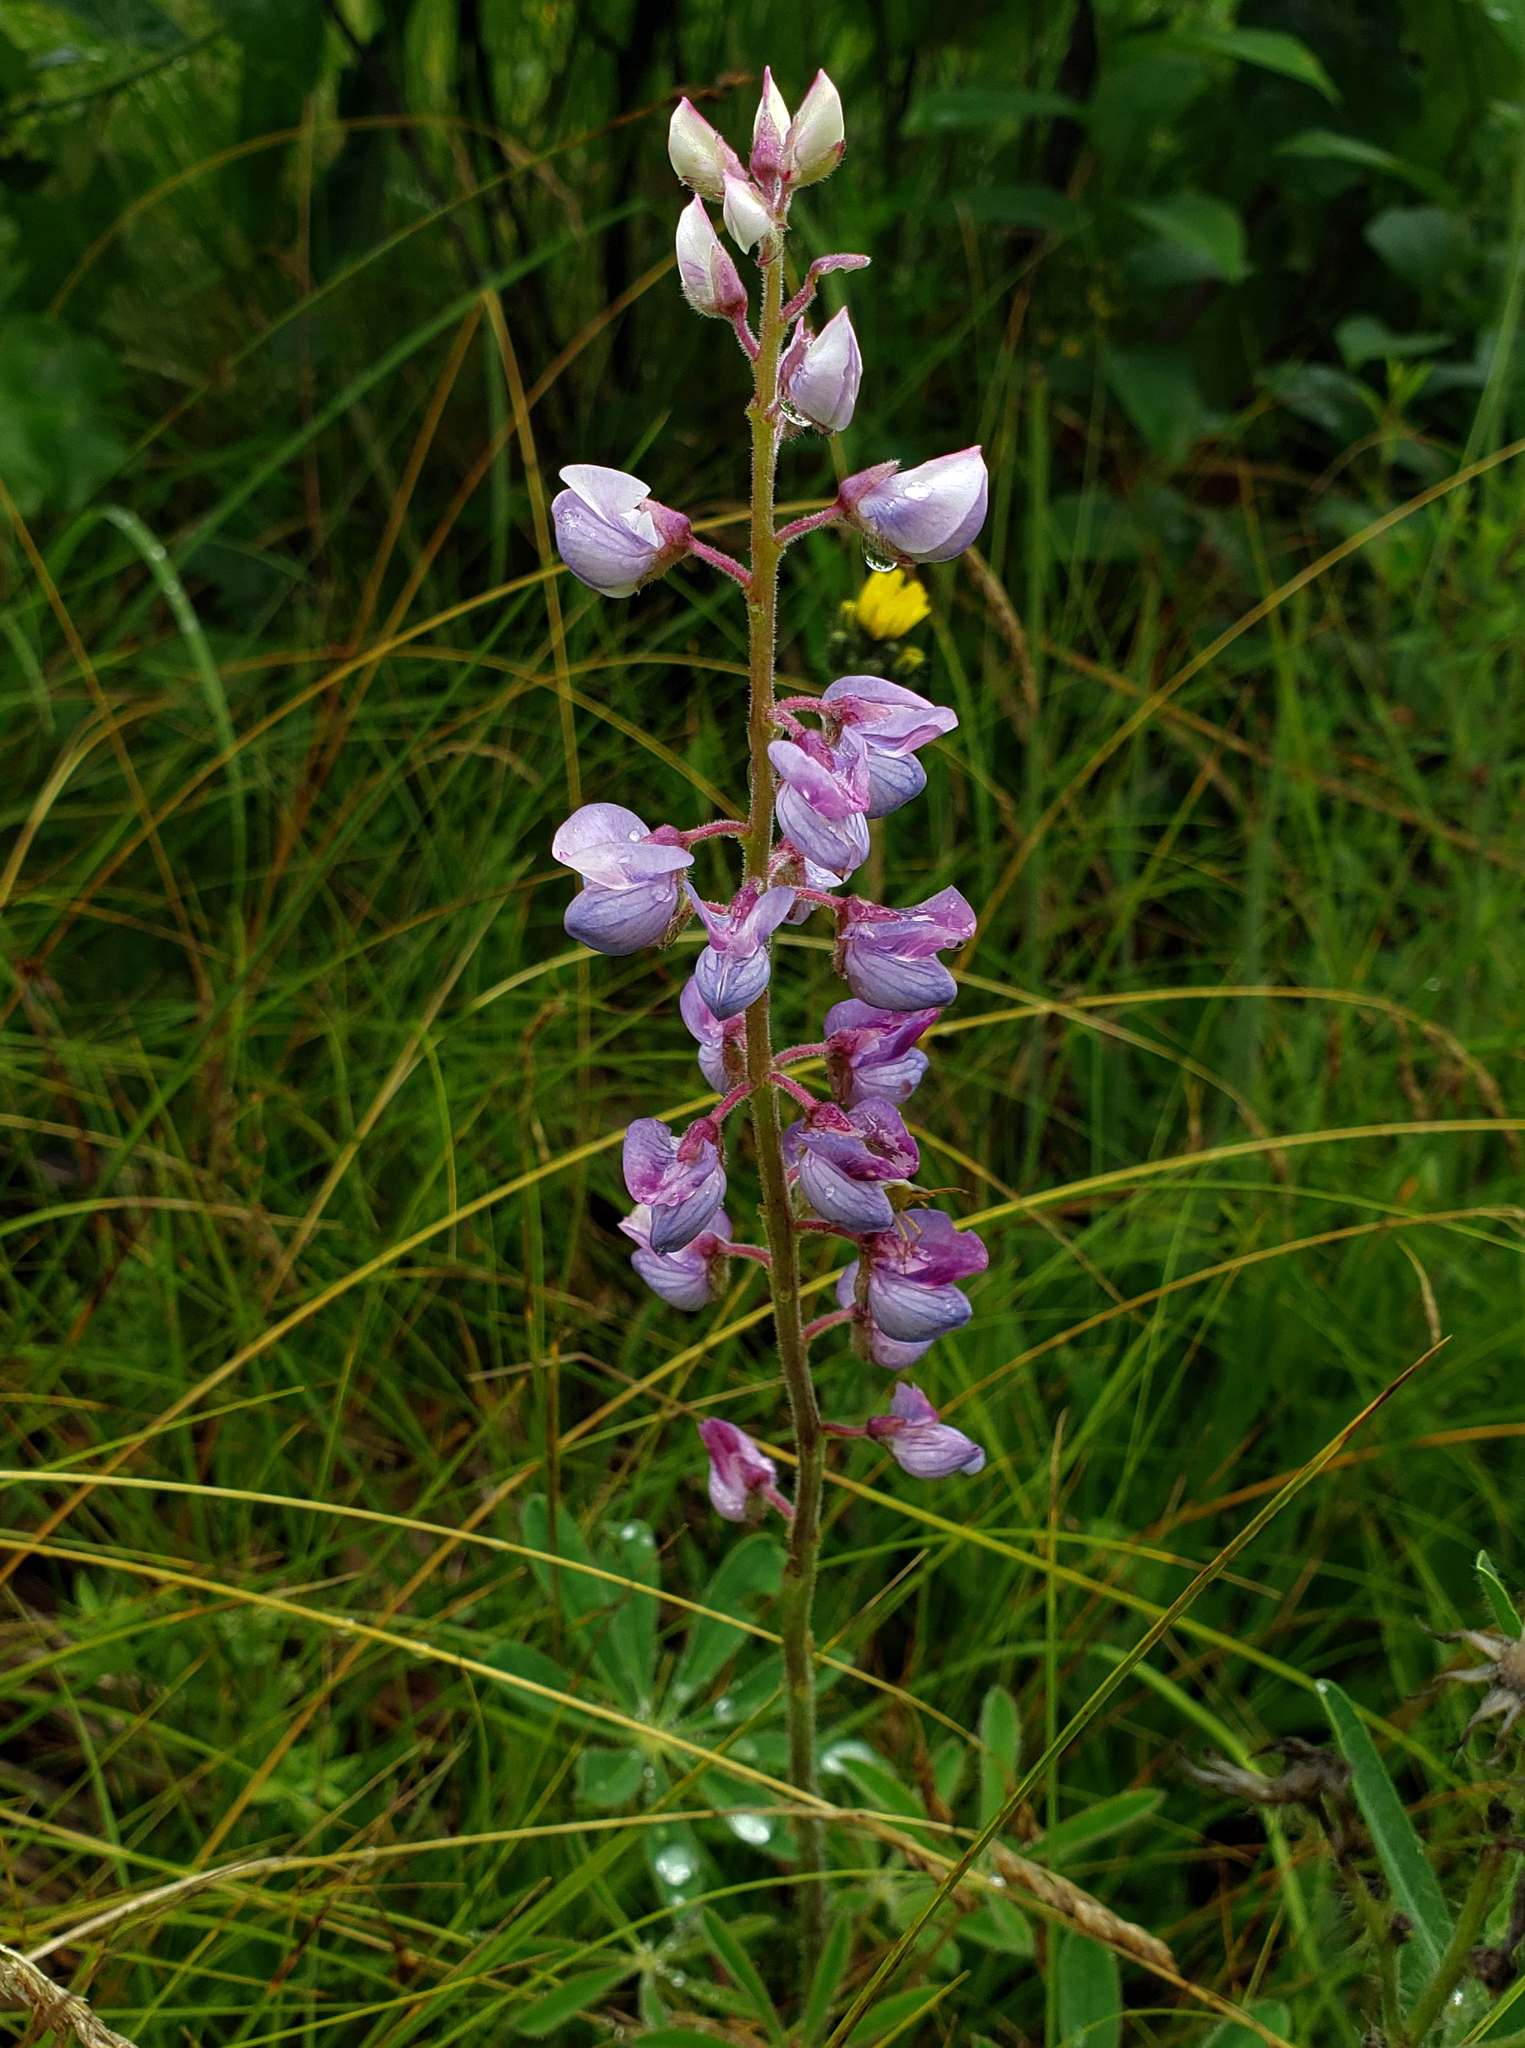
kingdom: Plantae
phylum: Tracheophyta
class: Magnoliopsida
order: Fabales
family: Fabaceae
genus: Lupinus
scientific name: Lupinus perennis
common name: Sundial lupine
